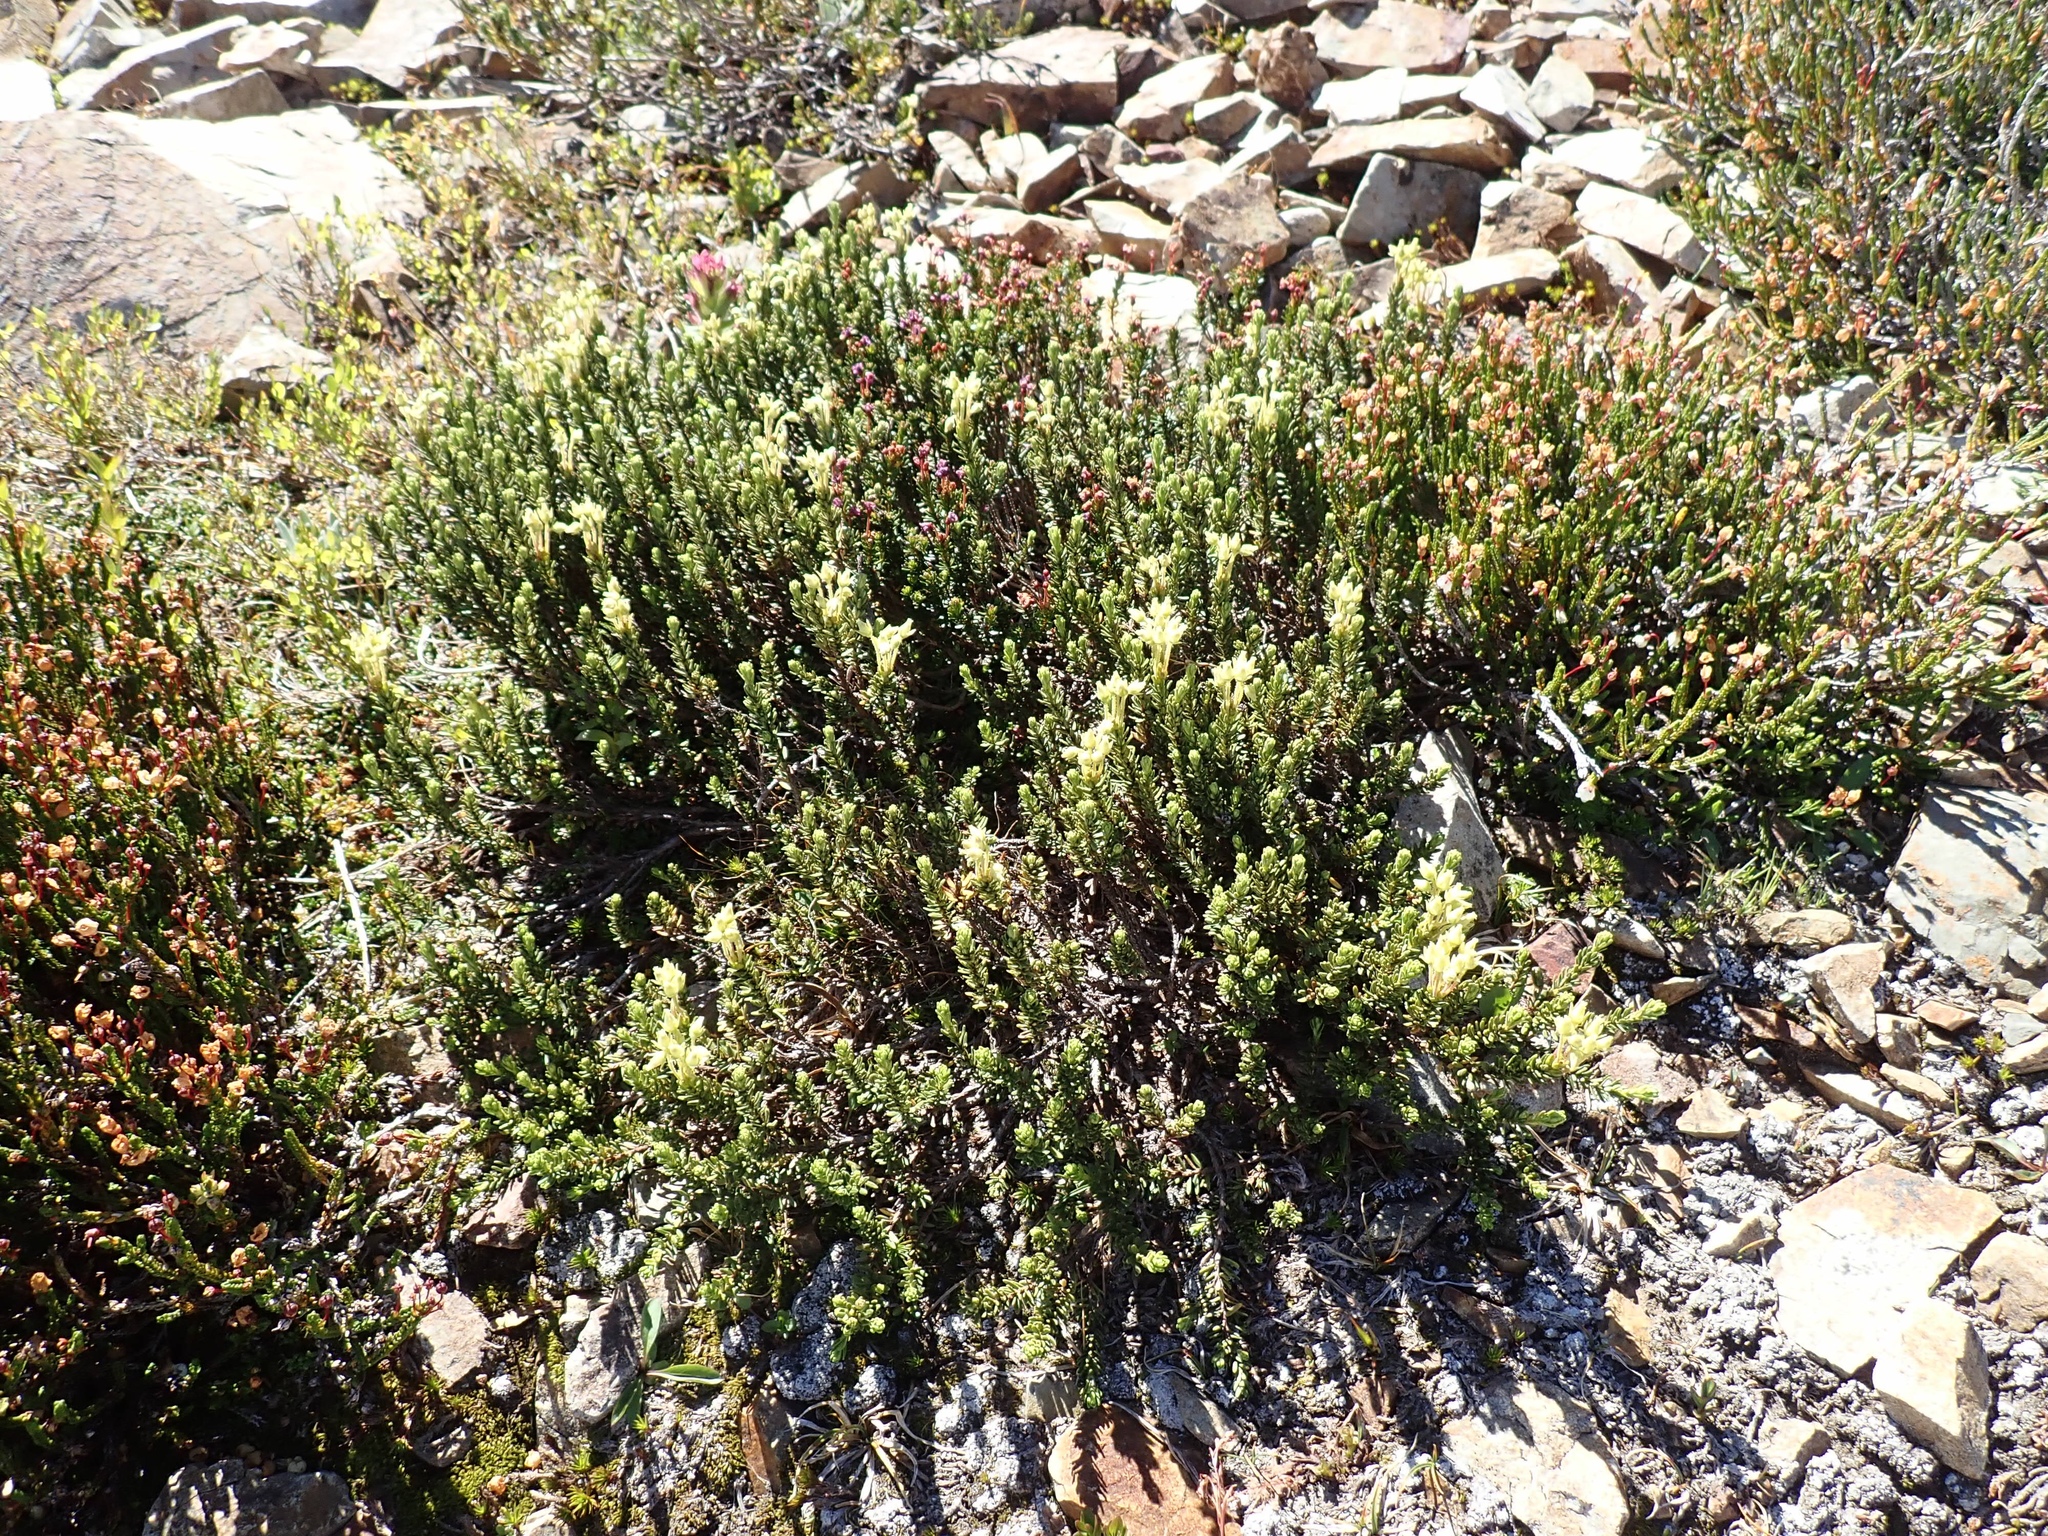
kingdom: Plantae
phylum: Tracheophyta
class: Magnoliopsida
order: Ericales
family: Ericaceae
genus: Phyllodoce
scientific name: Phyllodoce glanduliflora
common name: Cream mountain heather
